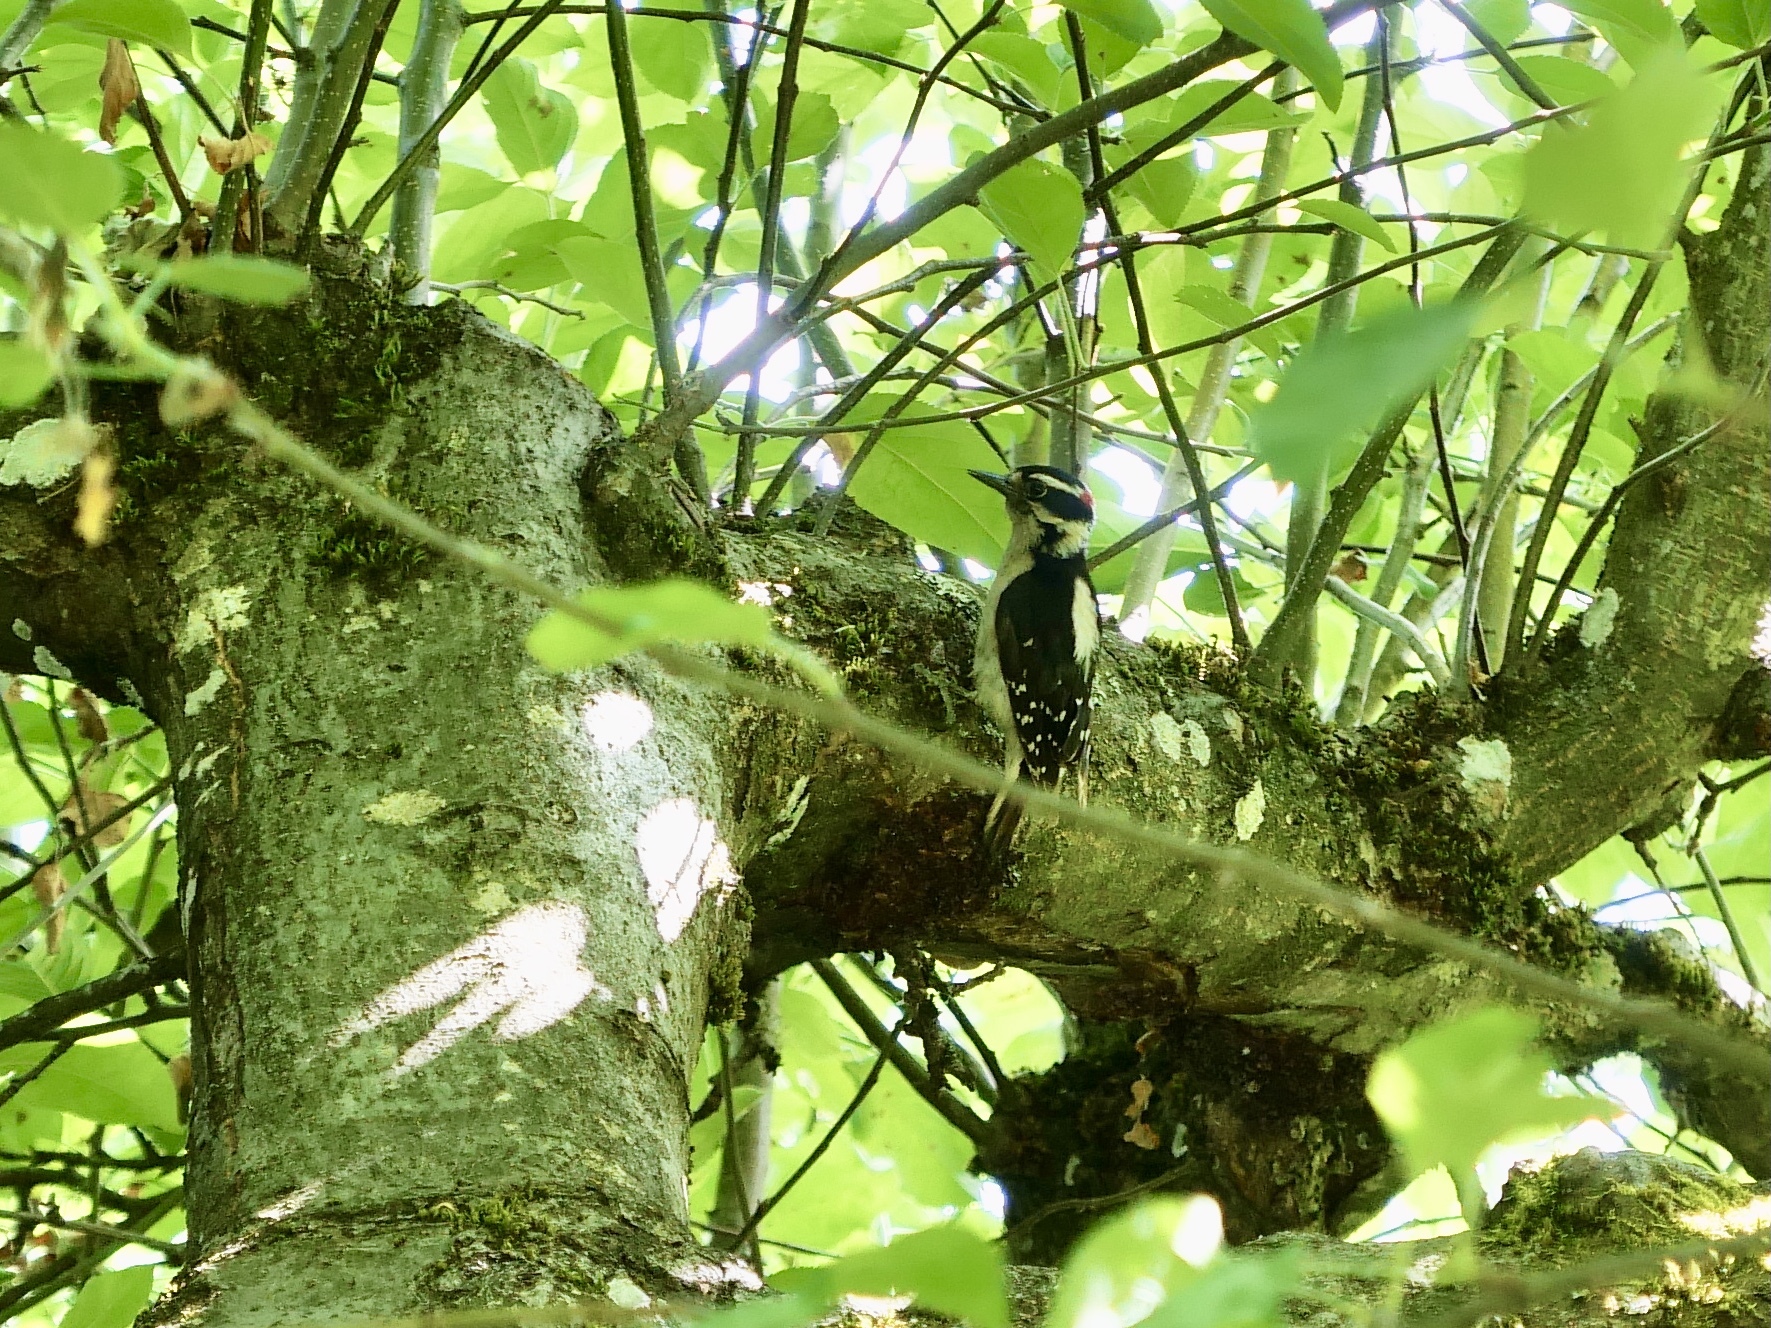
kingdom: Animalia
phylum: Chordata
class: Aves
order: Piciformes
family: Picidae
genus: Leuconotopicus
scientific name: Leuconotopicus villosus
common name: Hairy woodpecker
